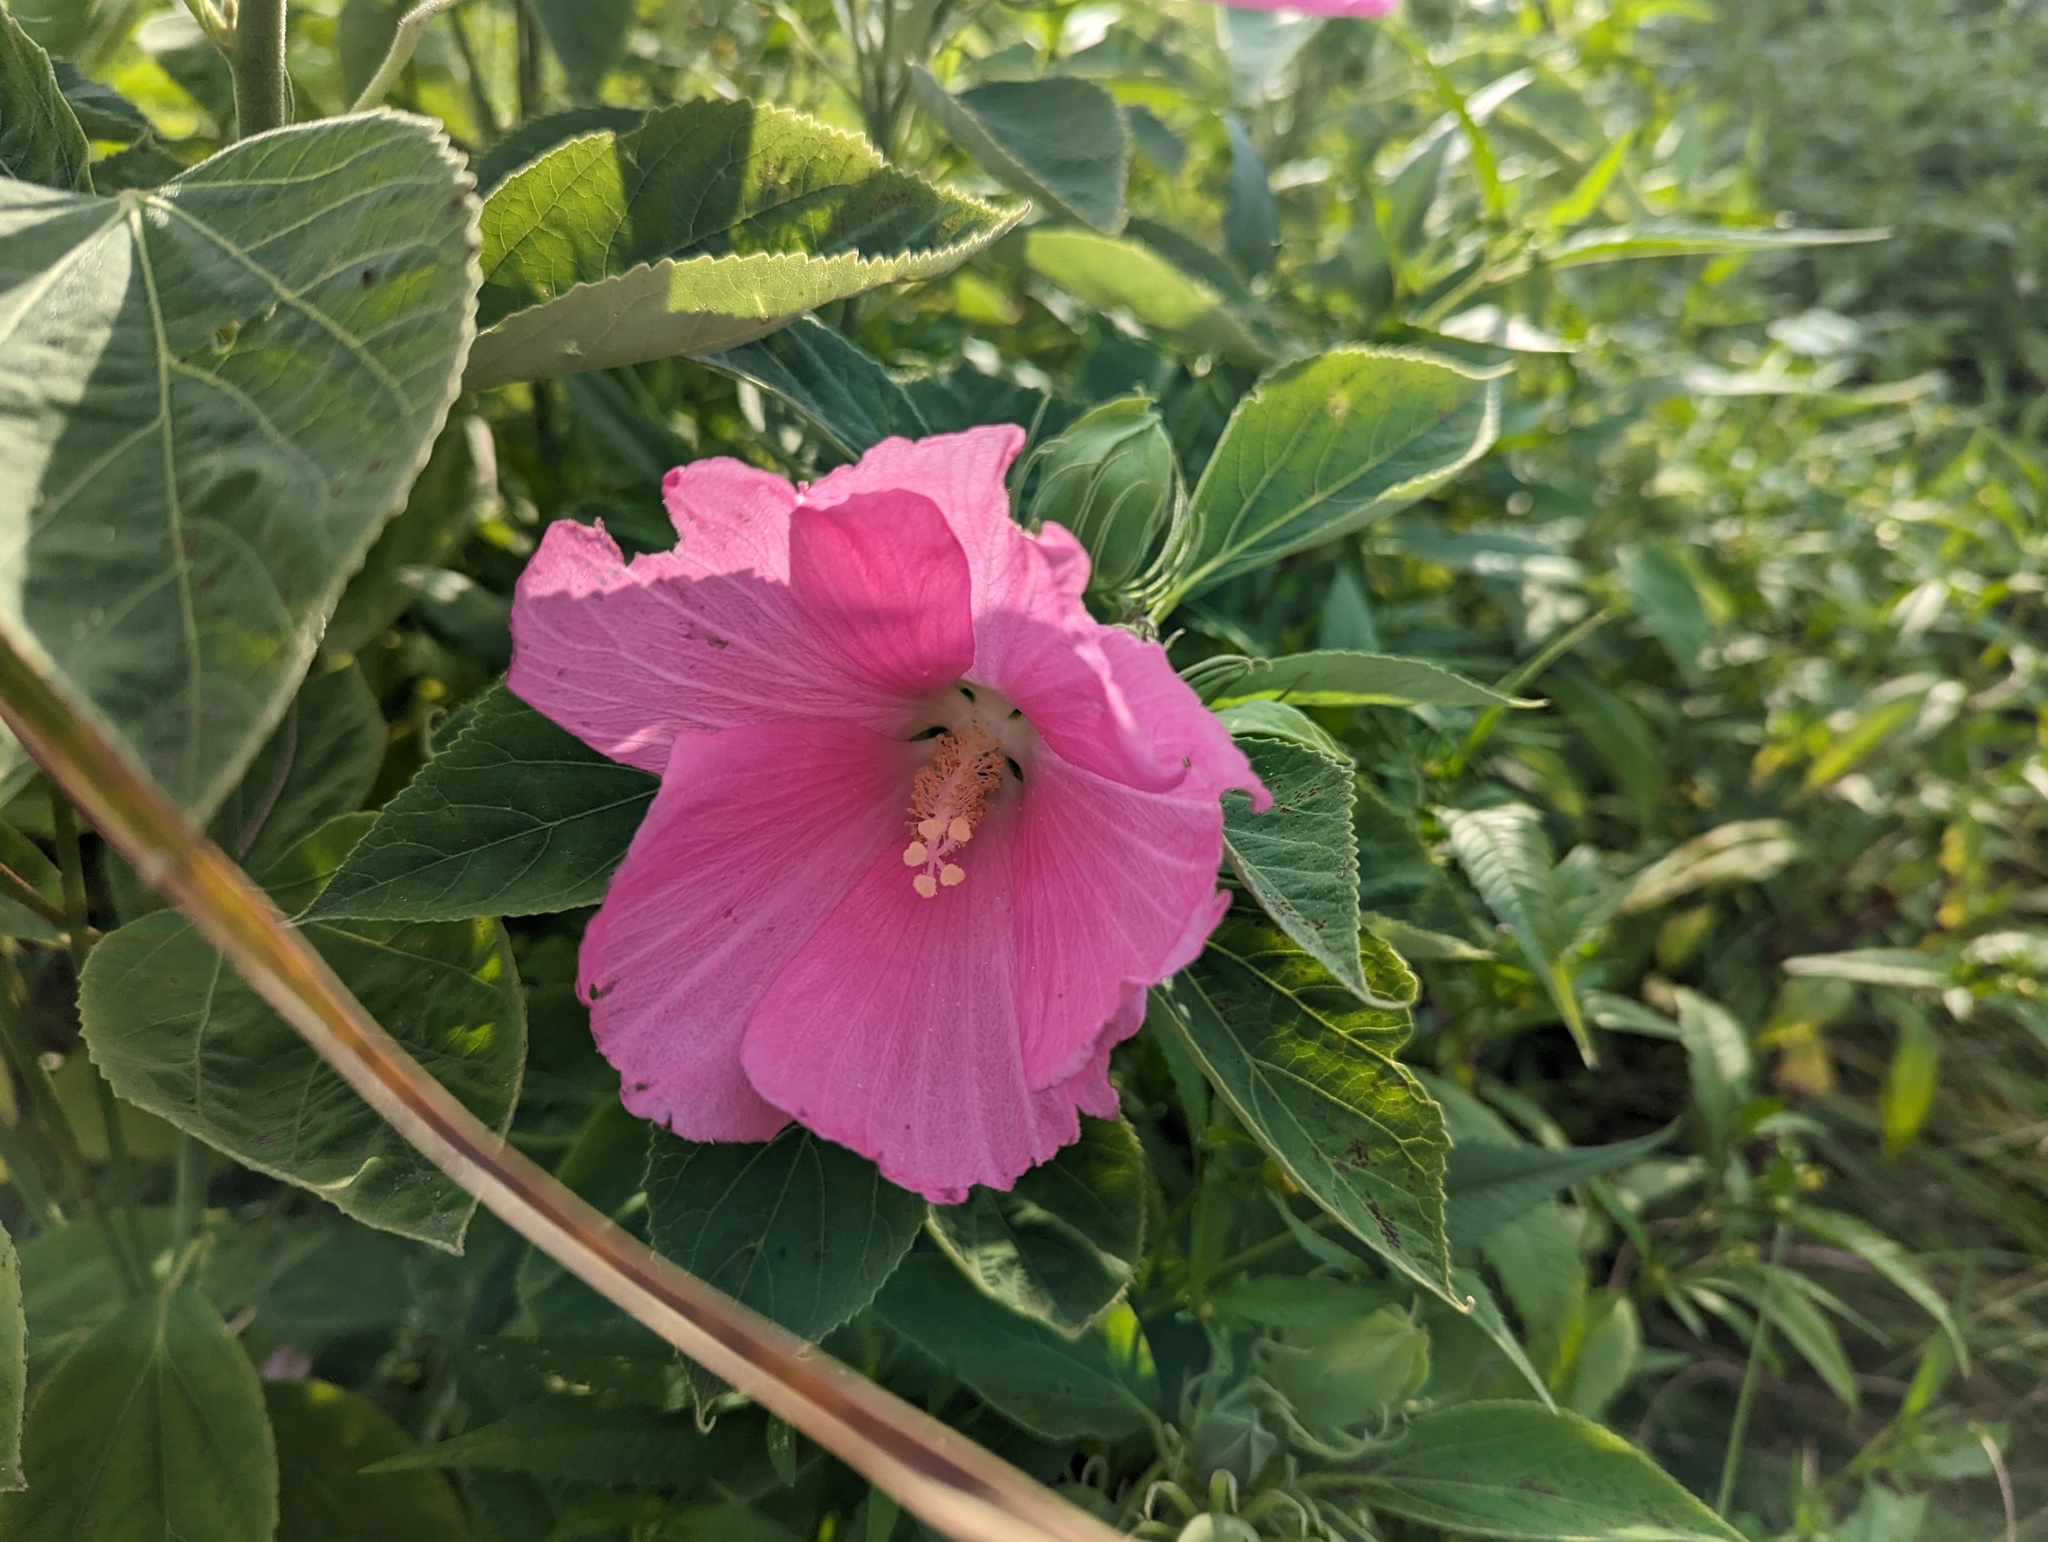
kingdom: Plantae
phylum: Tracheophyta
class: Magnoliopsida
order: Malvales
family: Malvaceae
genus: Hibiscus
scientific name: Hibiscus moscheutos
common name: Common rose-mallow
